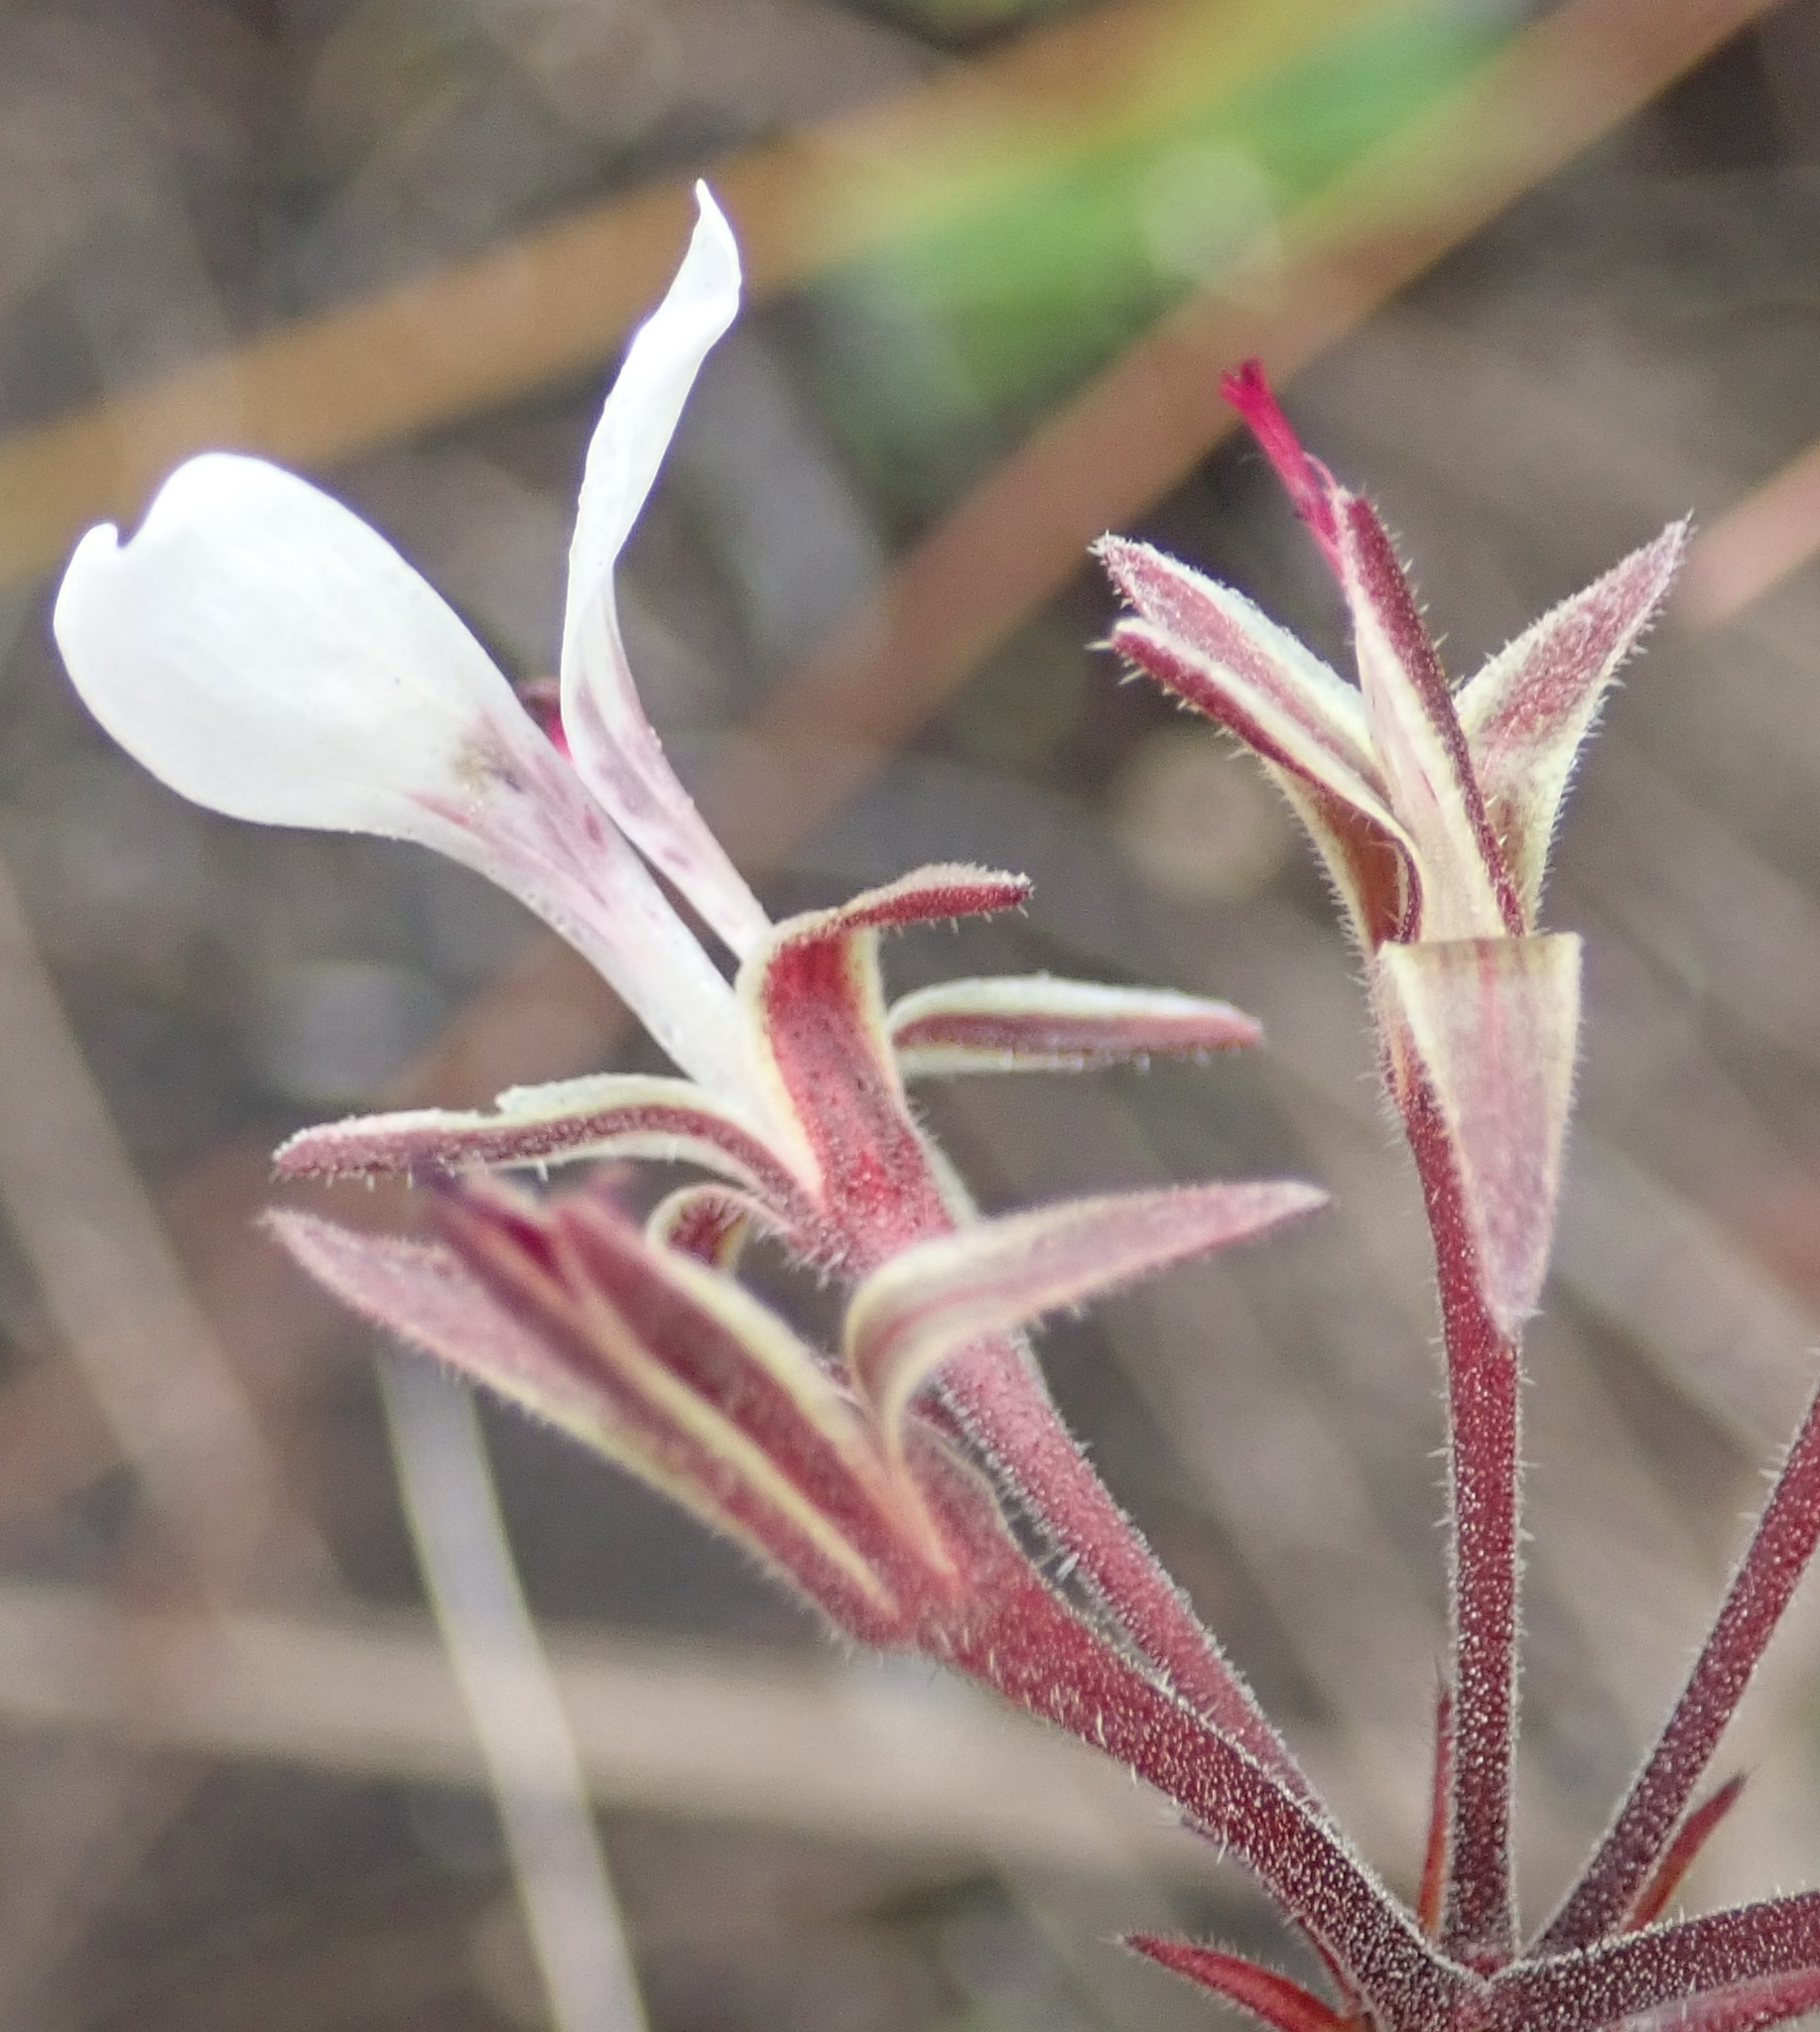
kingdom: Plantae
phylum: Tracheophyta
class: Magnoliopsida
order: Geraniales
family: Geraniaceae
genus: Pelargonium
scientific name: Pelargonium dipetalum
